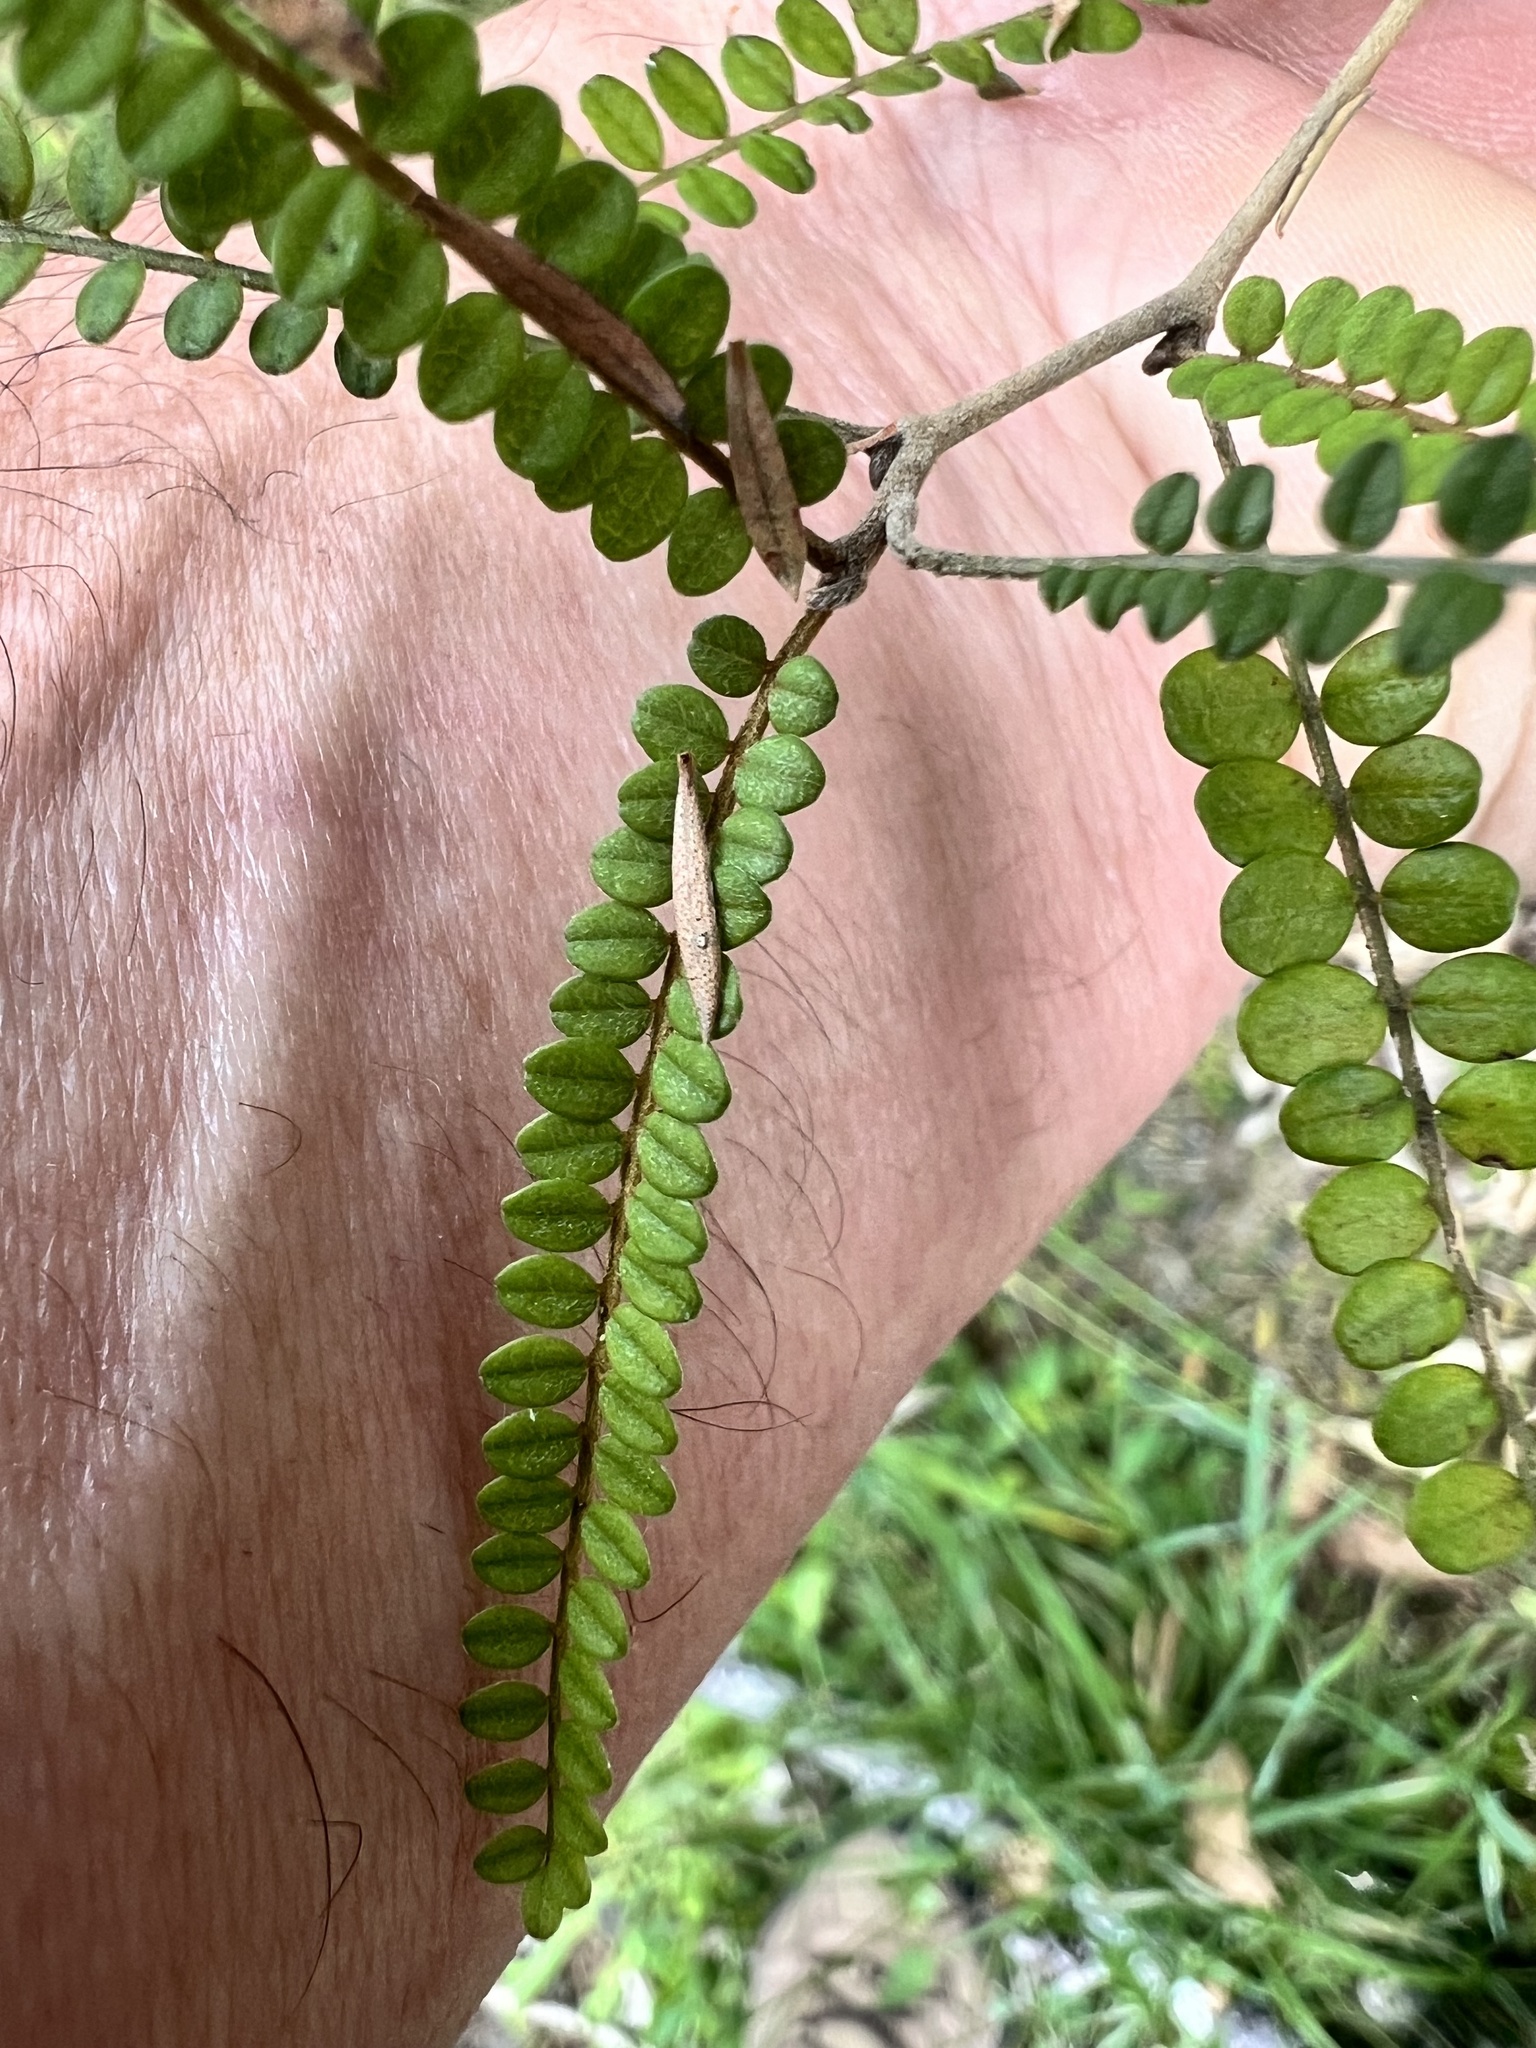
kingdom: Plantae
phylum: Tracheophyta
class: Magnoliopsida
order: Fabales
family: Fabaceae
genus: Sophora
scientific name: Sophora chathamica
